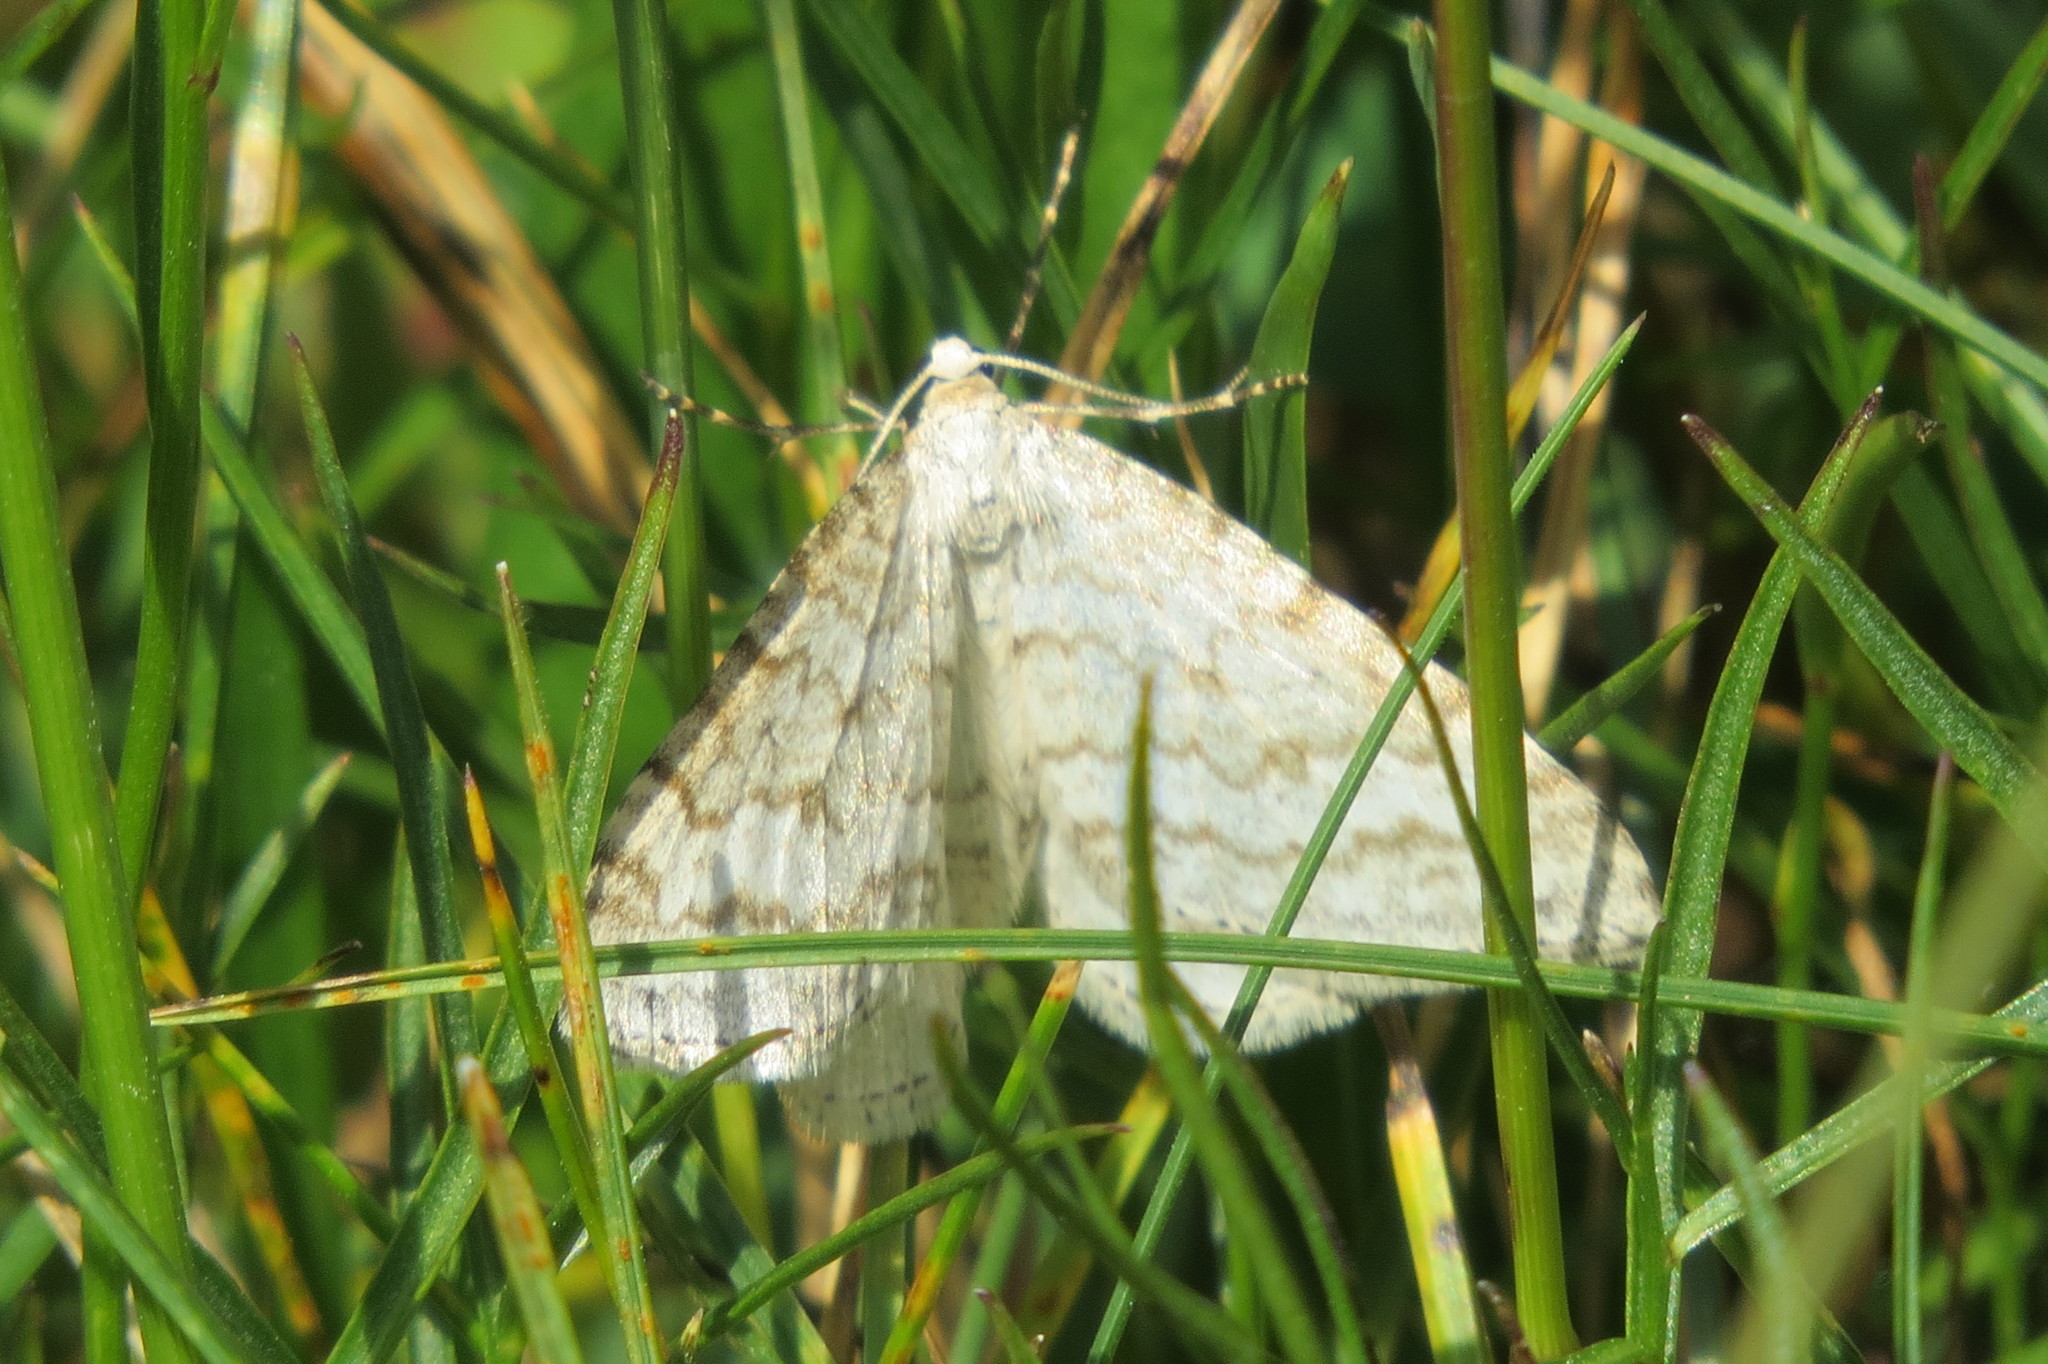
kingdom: Animalia
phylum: Arthropoda
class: Insecta
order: Lepidoptera
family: Geometridae
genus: Perizoma
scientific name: Perizoma verberata
